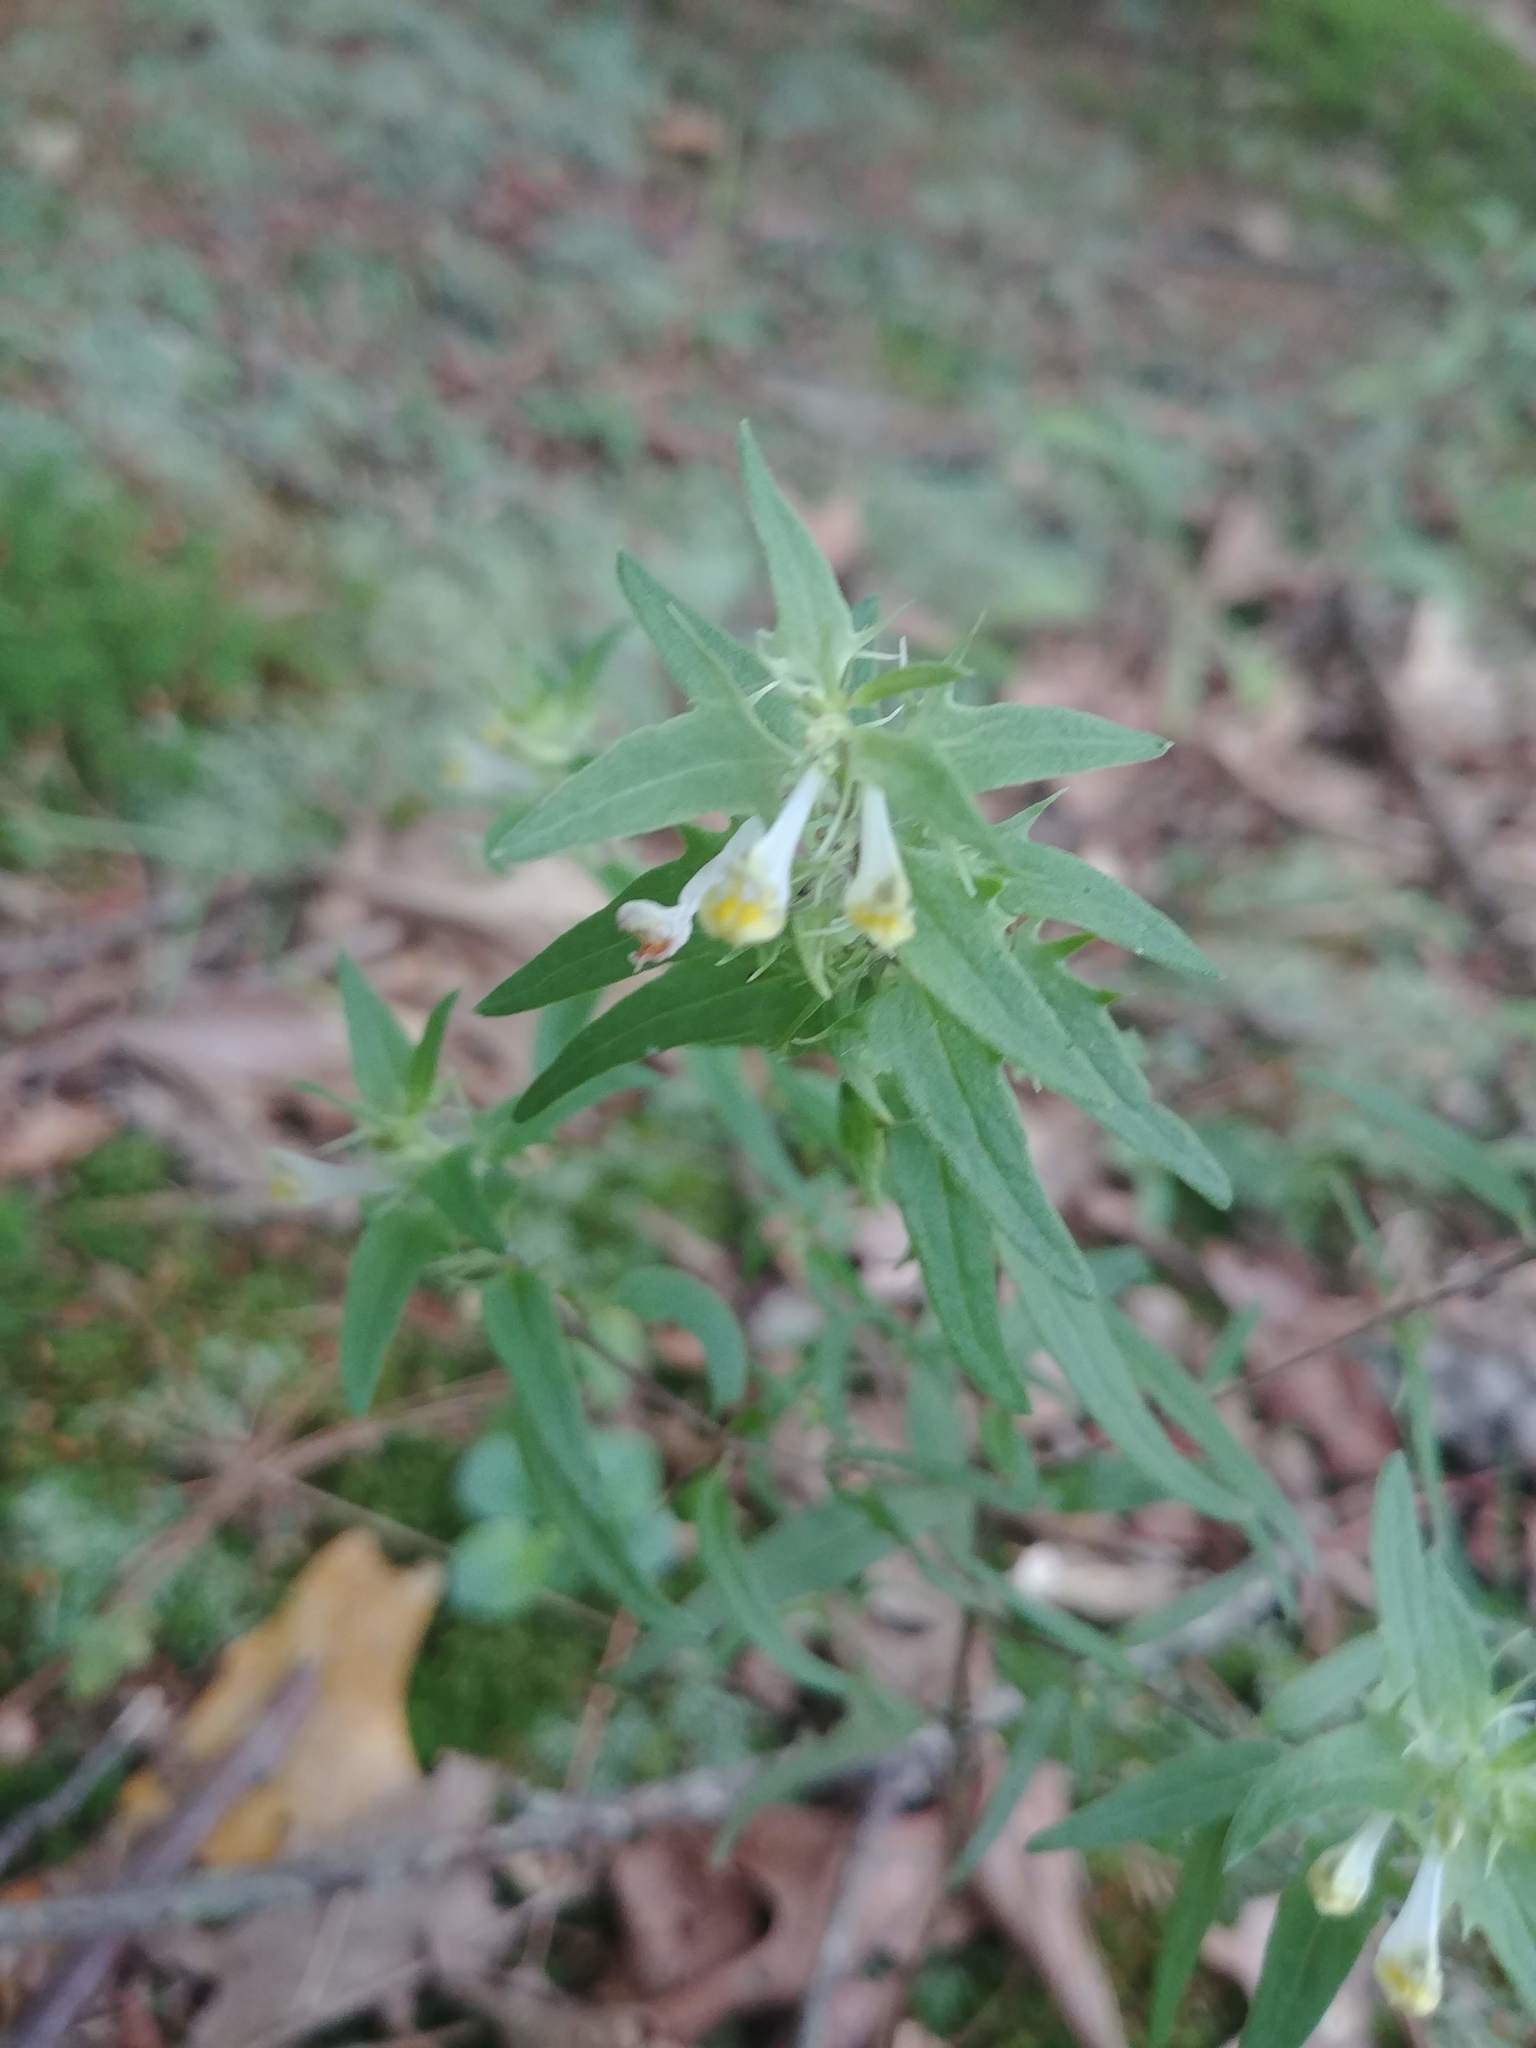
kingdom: Plantae
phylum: Tracheophyta
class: Magnoliopsida
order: Lamiales
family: Orobanchaceae
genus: Melampyrum
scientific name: Melampyrum lineare
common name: American cow-wheat
